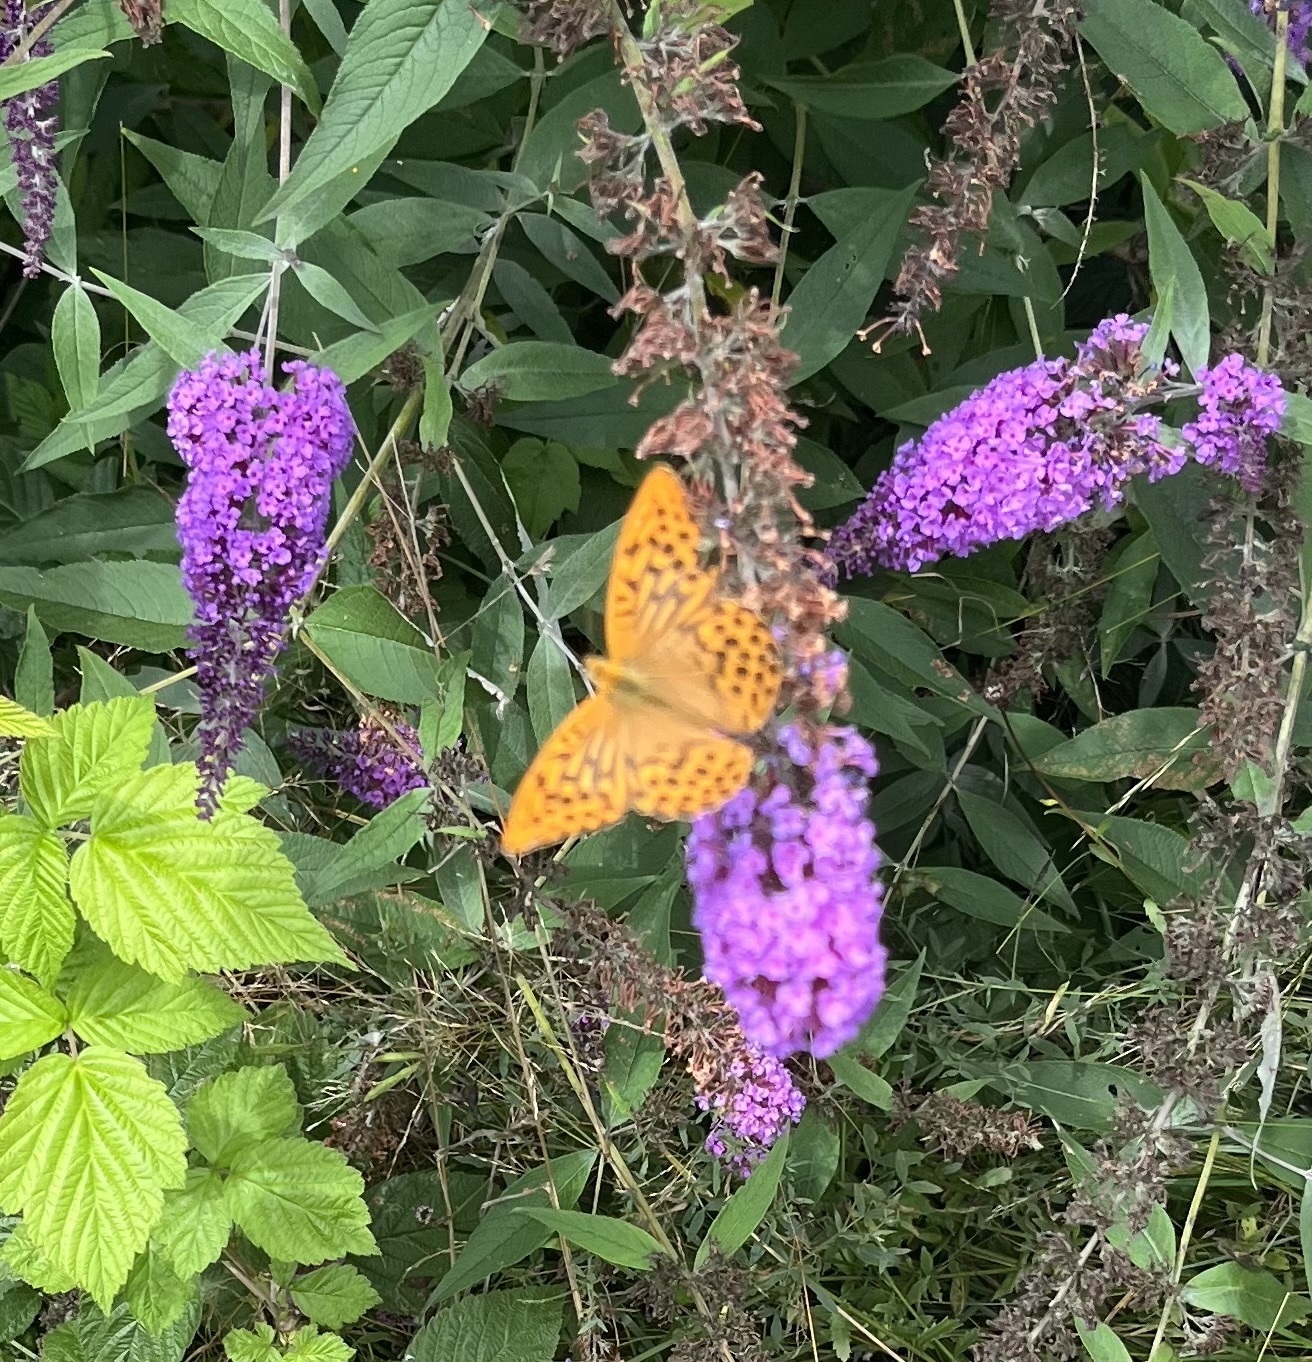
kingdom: Animalia
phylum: Arthropoda
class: Insecta
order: Lepidoptera
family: Nymphalidae
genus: Argynnis
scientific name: Argynnis paphia
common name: Silver-washed fritillary
